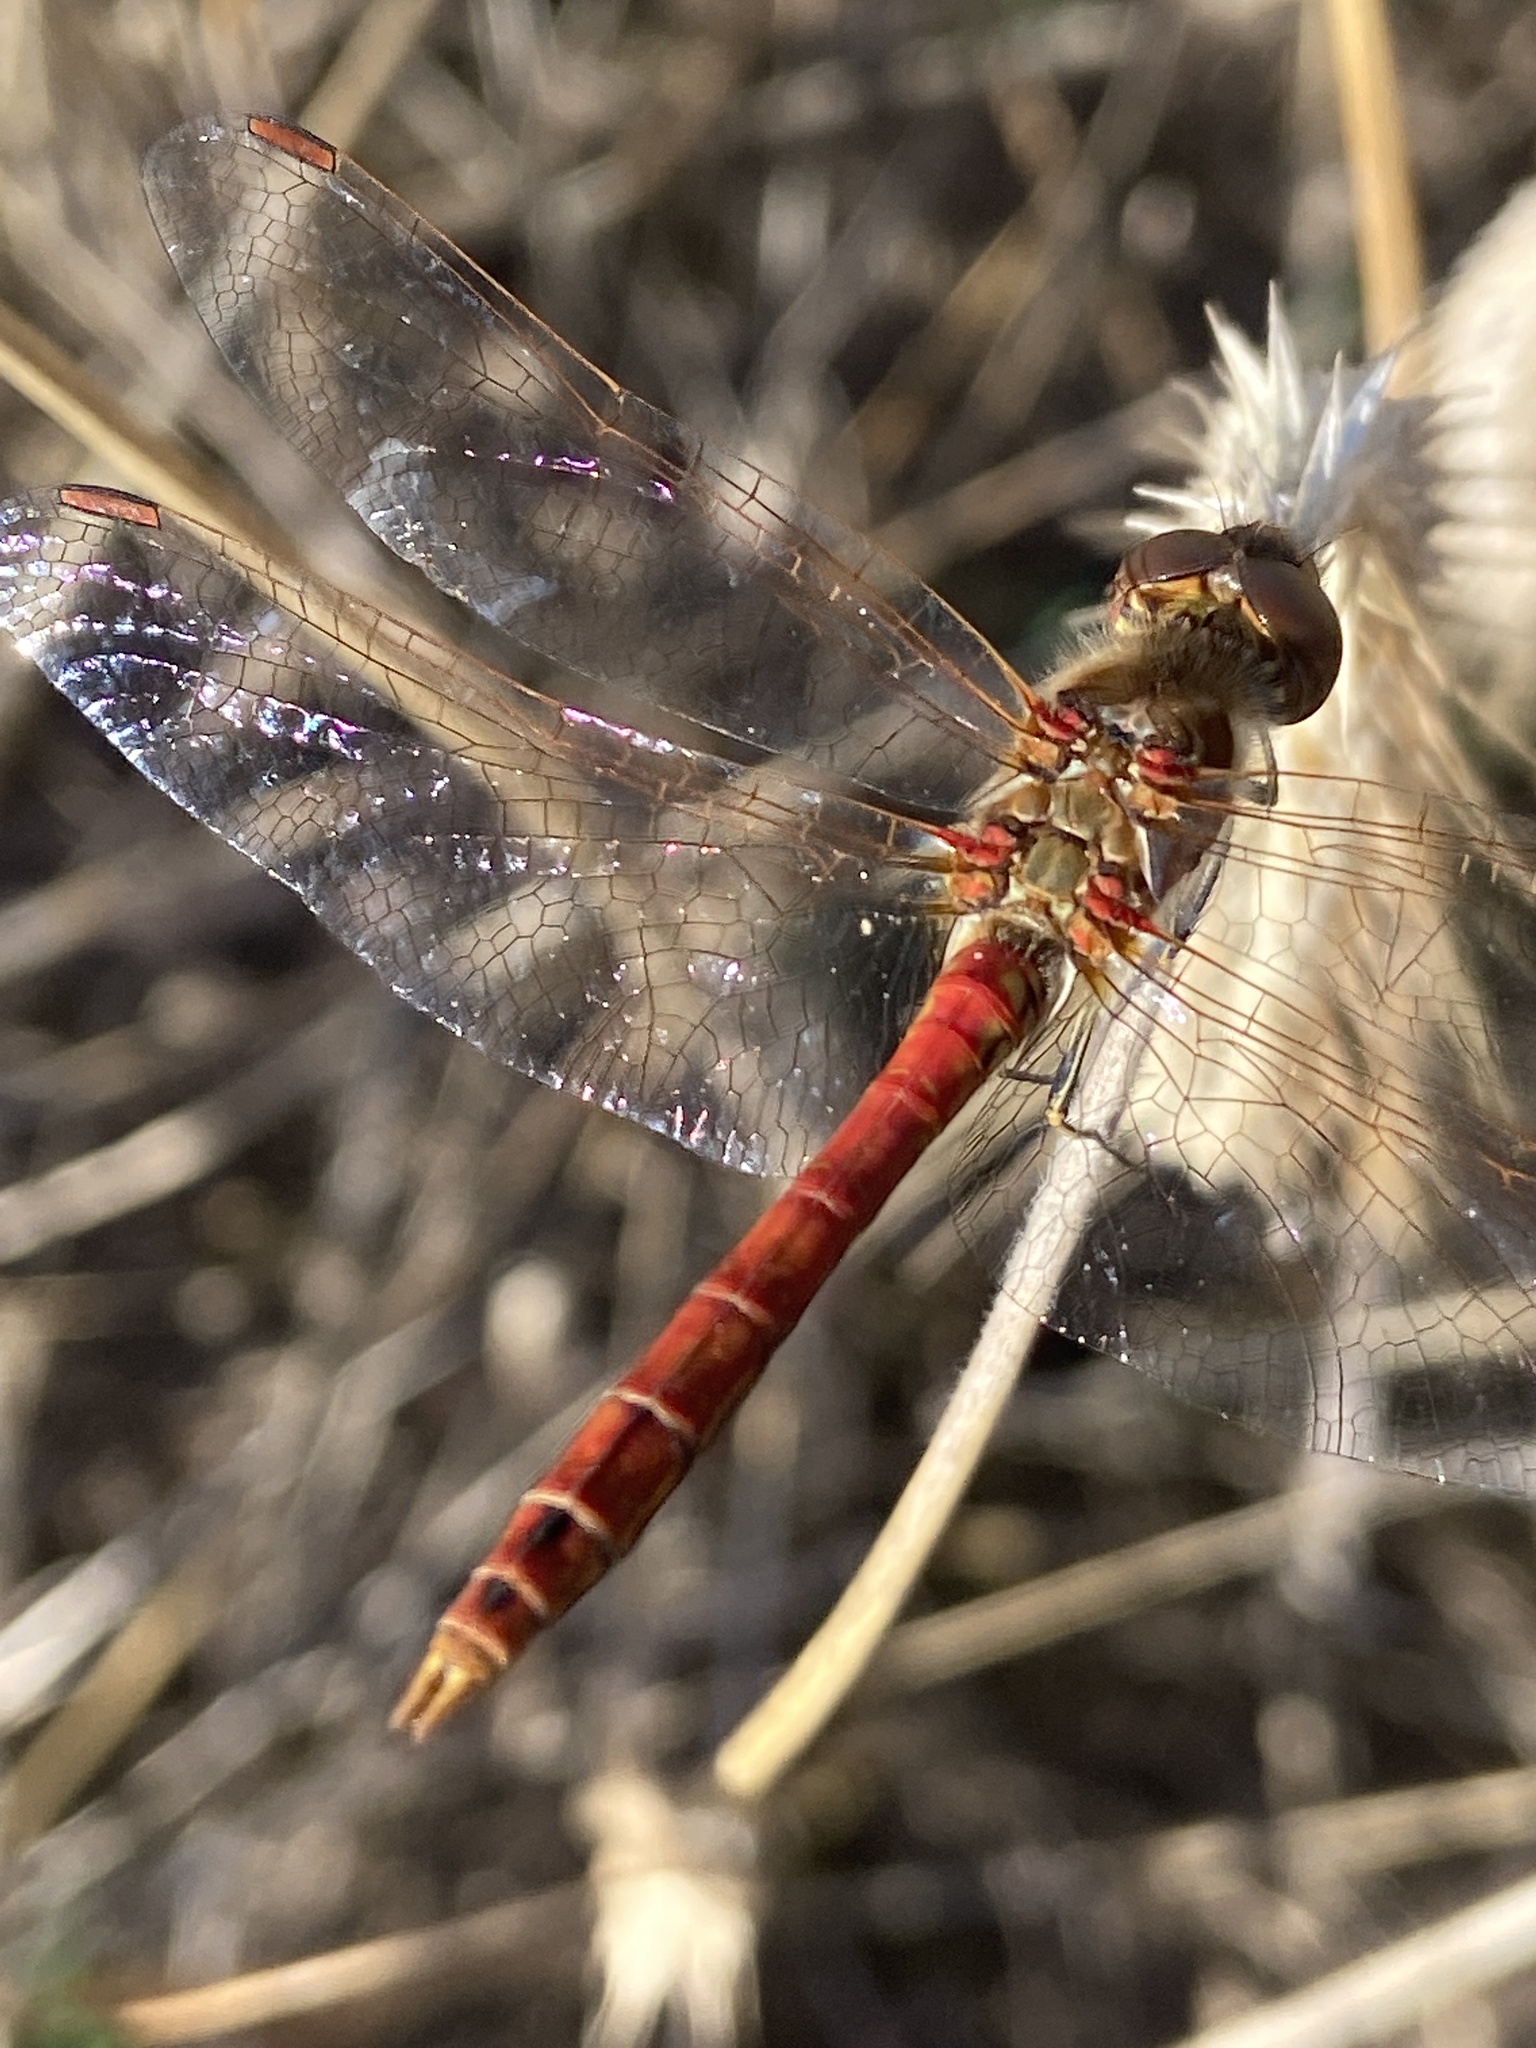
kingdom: Animalia
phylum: Arthropoda
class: Insecta
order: Odonata
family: Libellulidae
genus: Sympetrum
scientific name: Sympetrum vulgatum
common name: Vagrant darter
